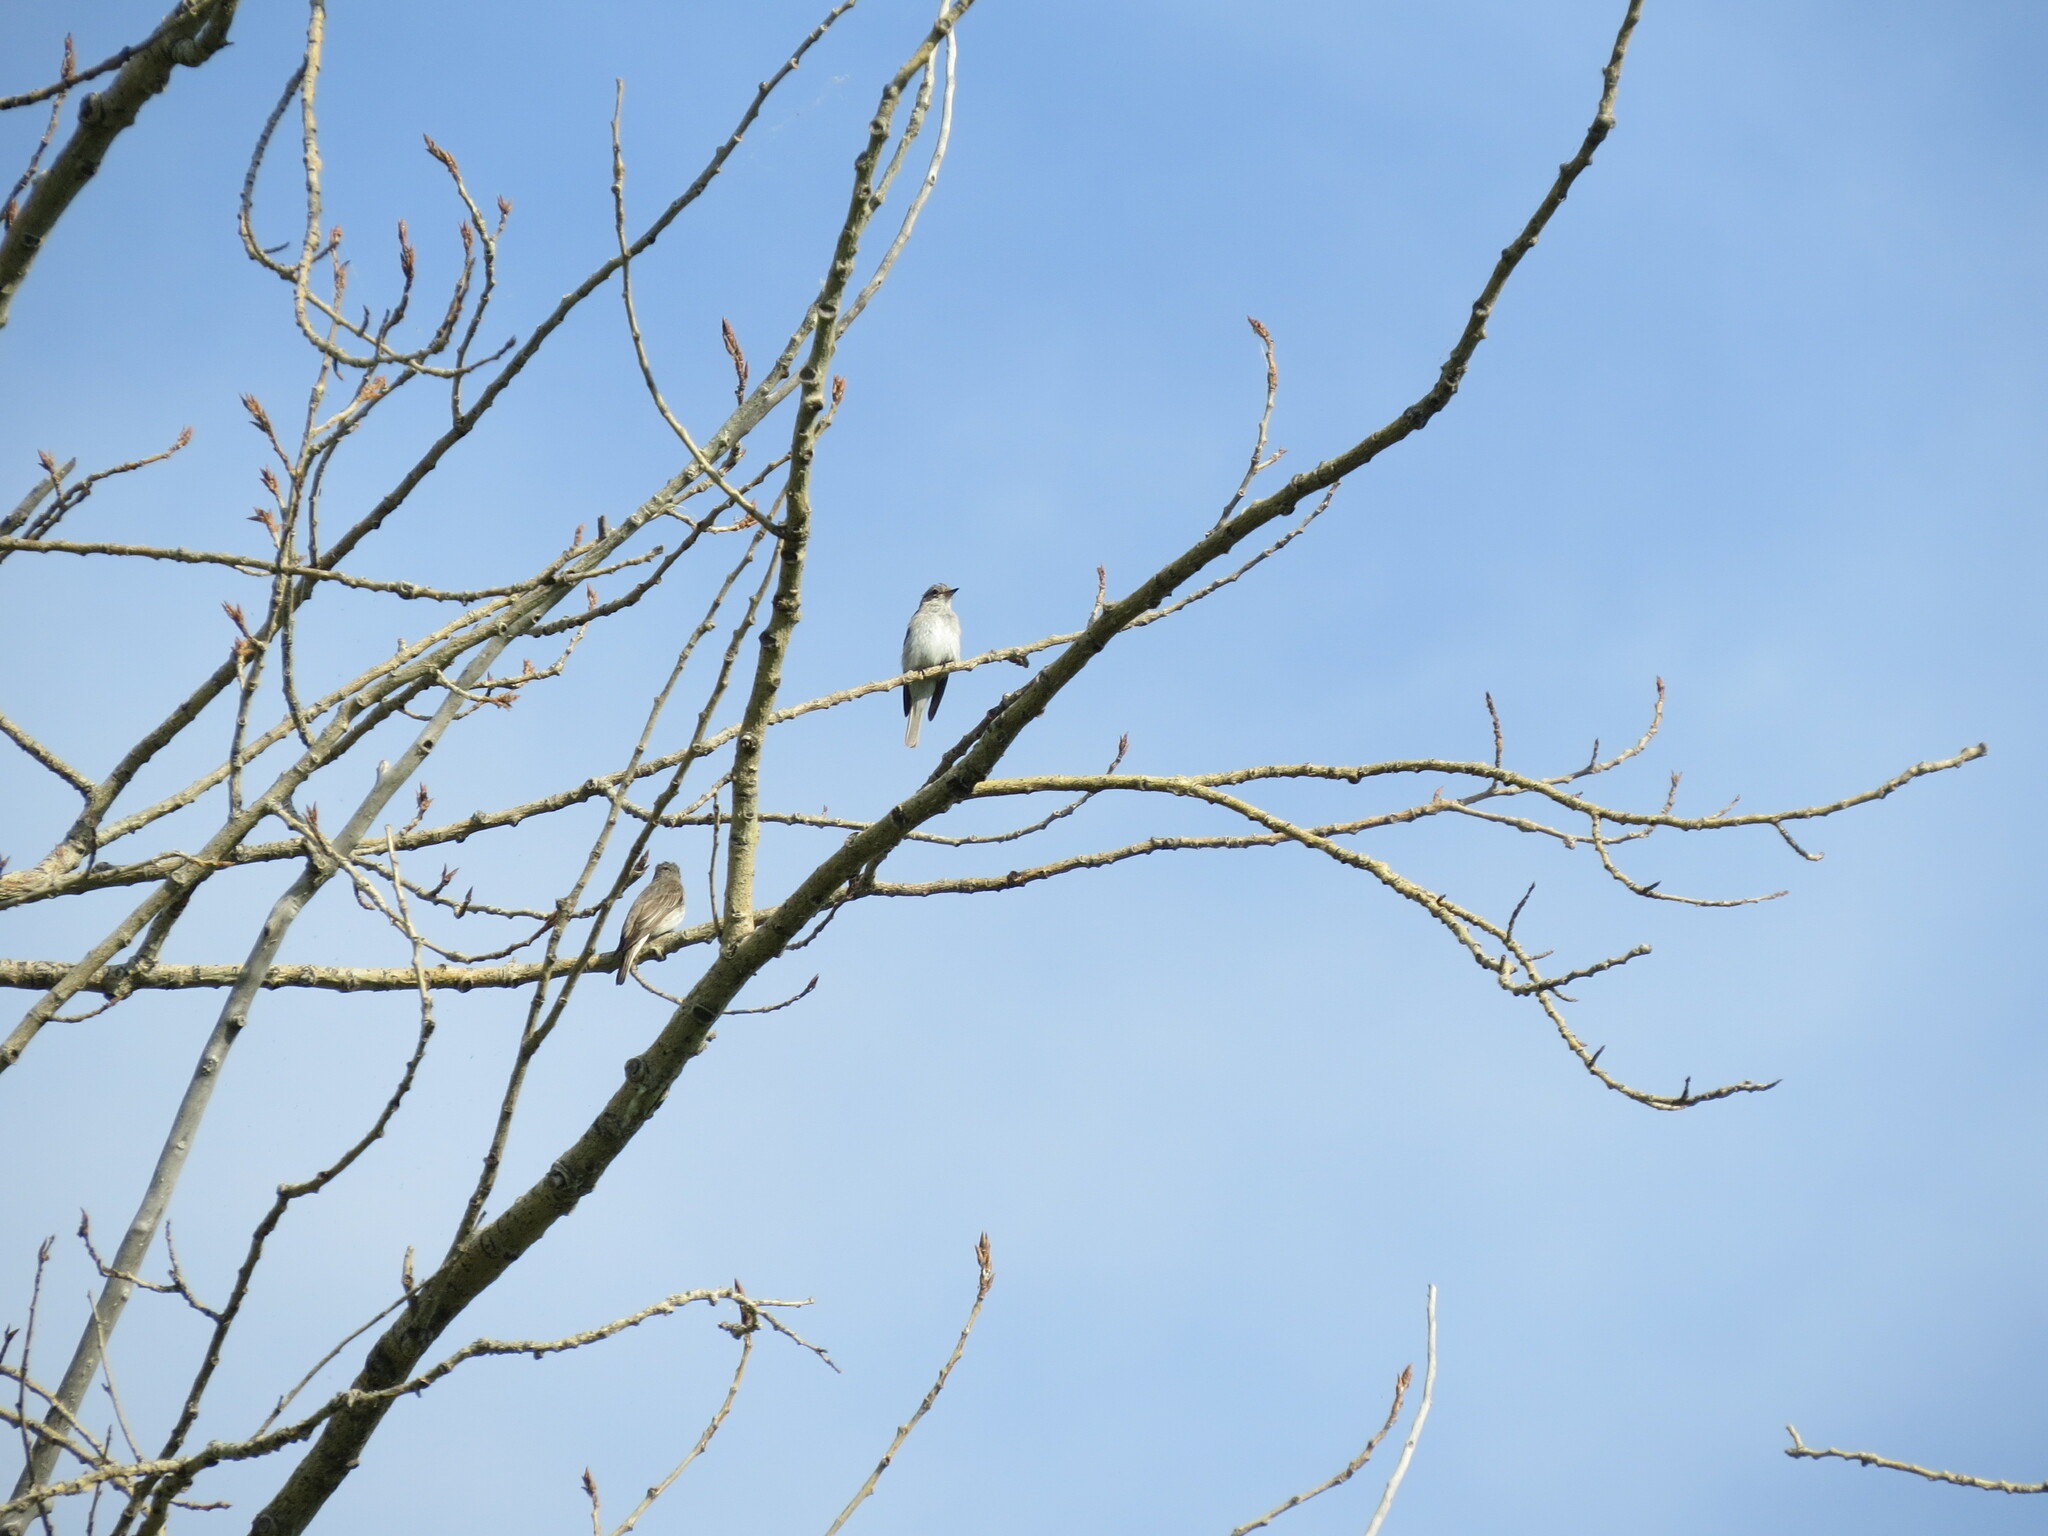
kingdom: Animalia
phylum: Chordata
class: Aves
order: Passeriformes
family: Muscicapidae
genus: Muscicapa
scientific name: Muscicapa striata
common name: Spotted flycatcher
